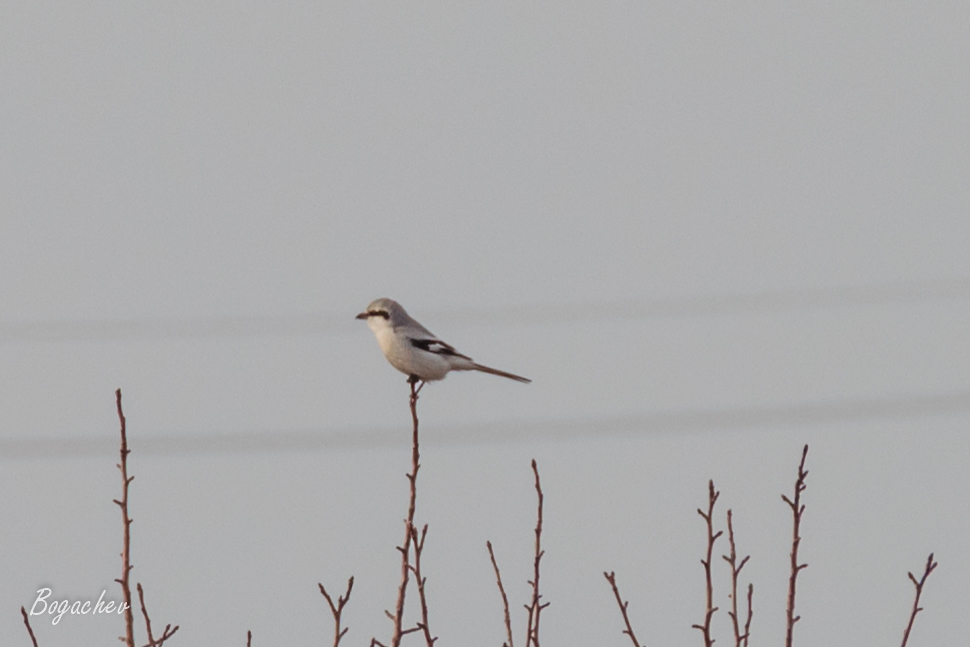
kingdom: Animalia
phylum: Chordata
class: Aves
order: Passeriformes
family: Laniidae
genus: Lanius
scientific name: Lanius excubitor
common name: Great grey shrike
